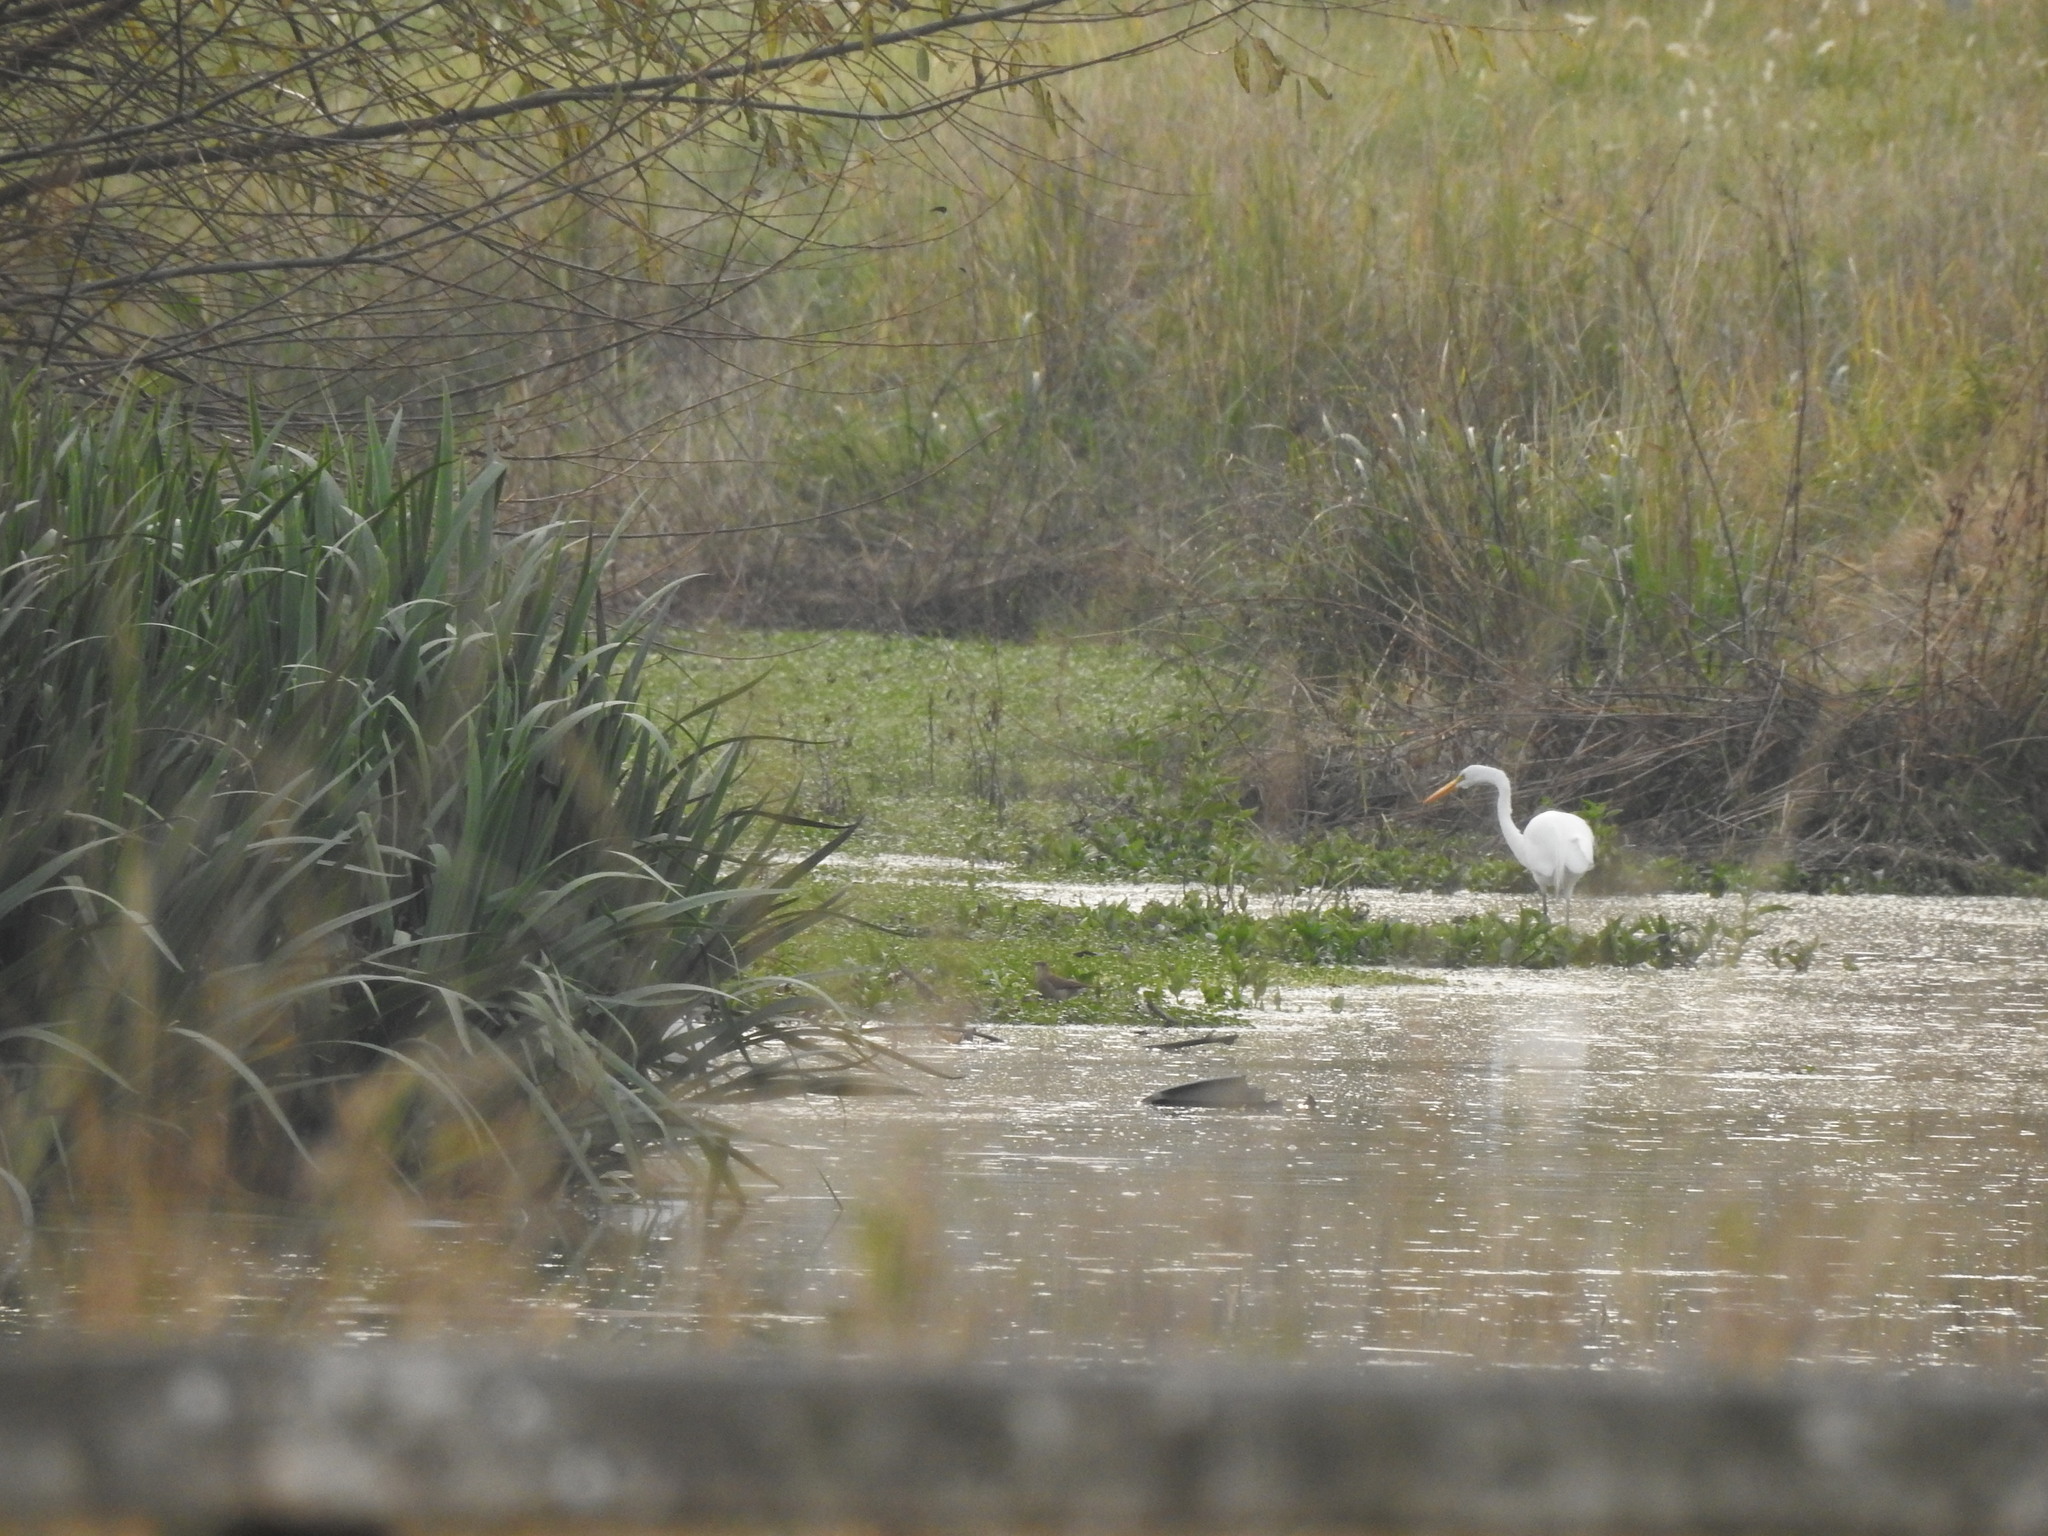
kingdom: Animalia
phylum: Chordata
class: Aves
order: Pelecaniformes
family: Ardeidae
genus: Ardea
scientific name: Ardea alba
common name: Great egret
